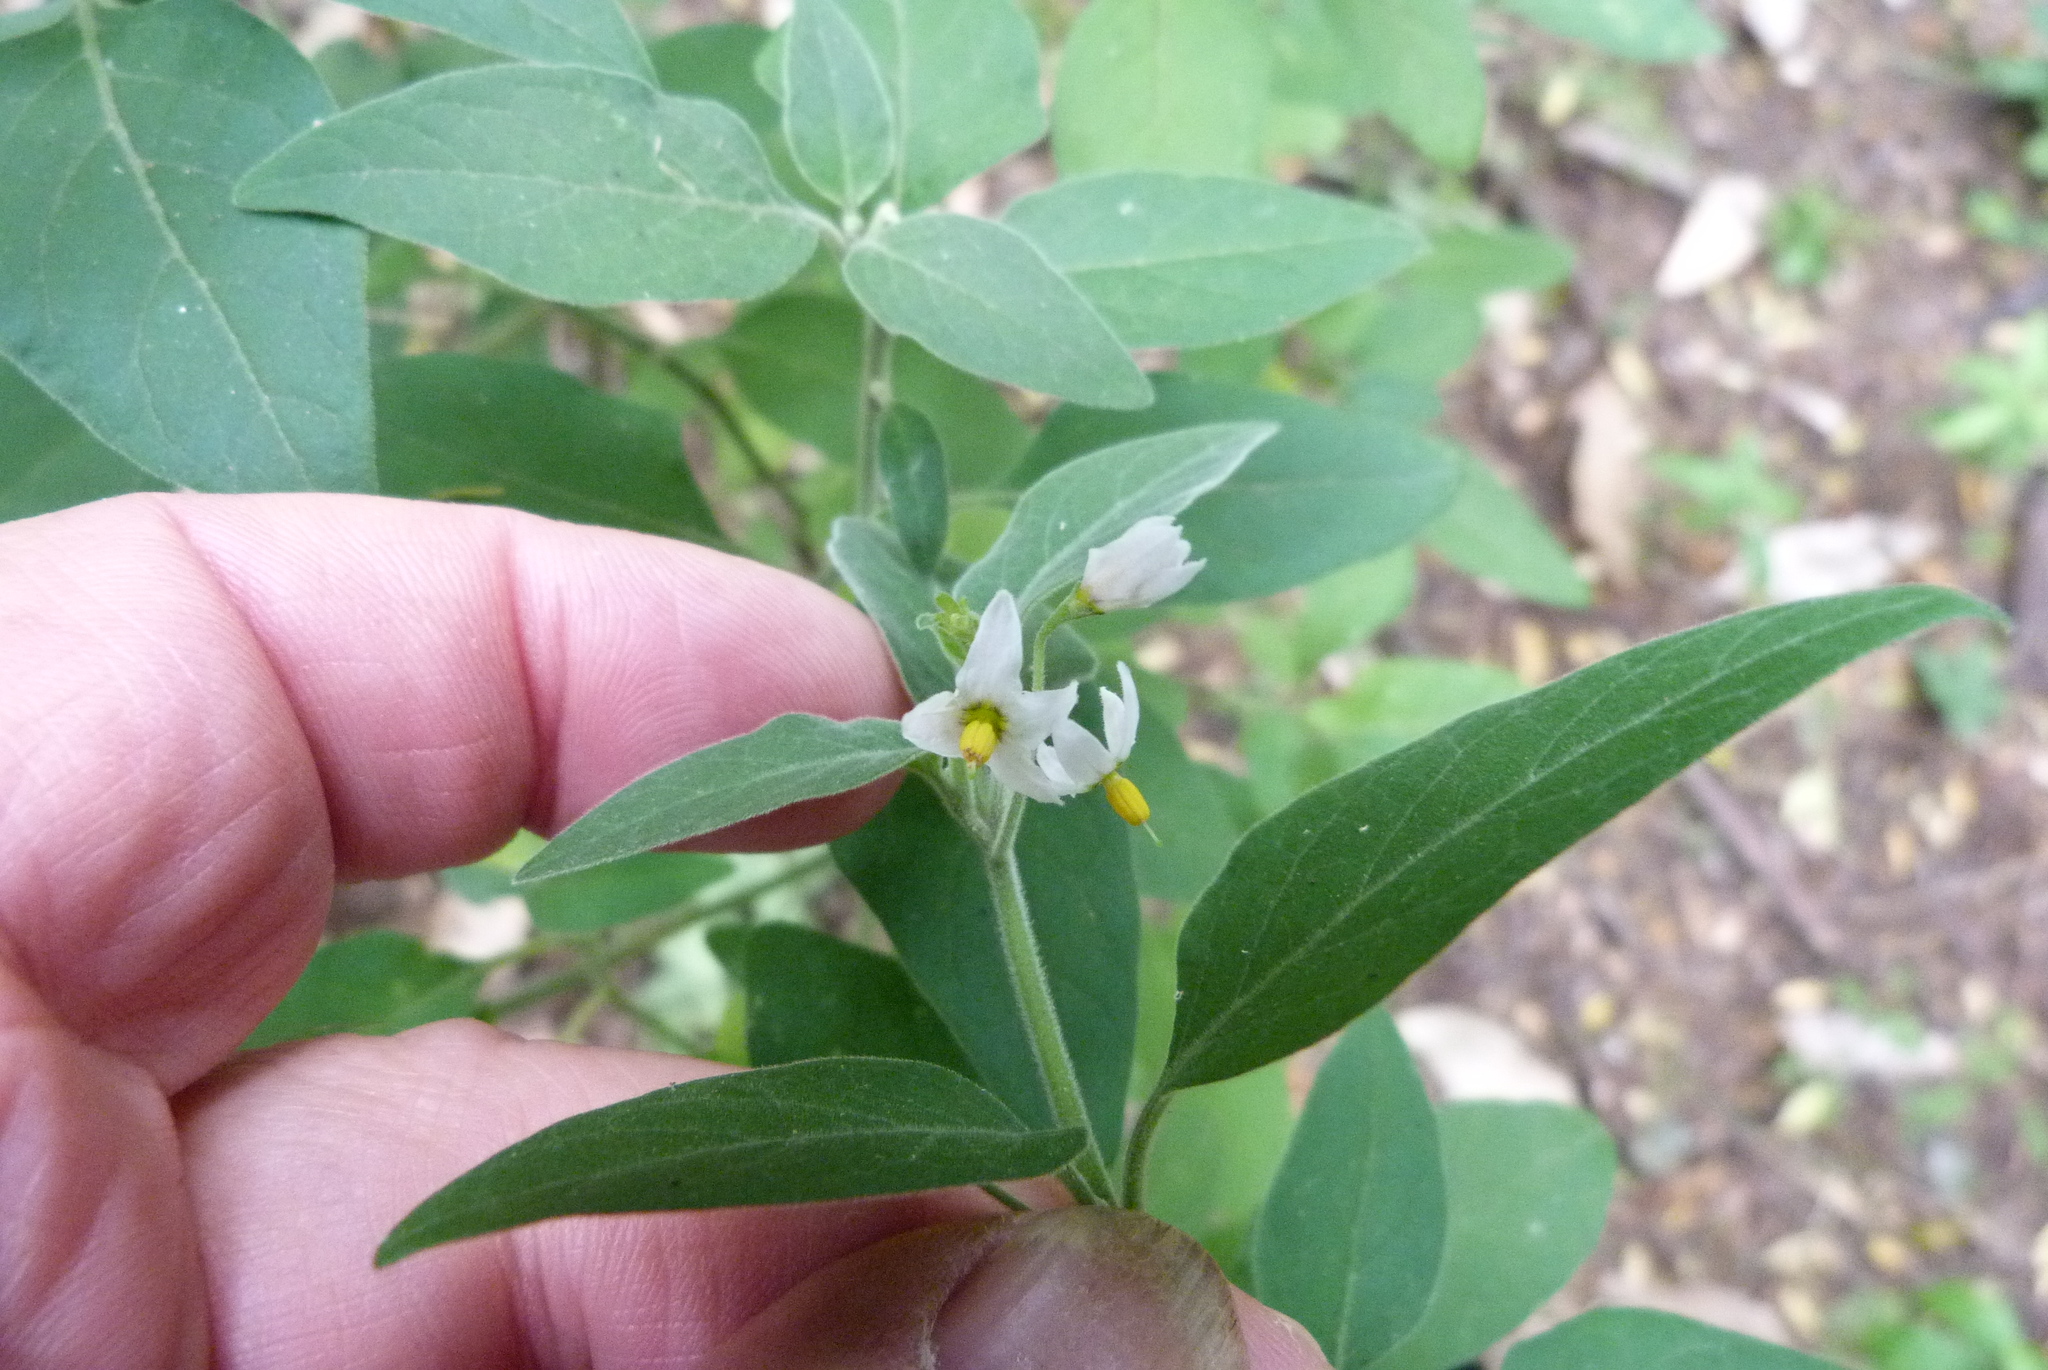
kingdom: Plantae
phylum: Tracheophyta
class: Magnoliopsida
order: Solanales
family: Solanaceae
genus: Solanum
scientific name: Solanum chenopodioides
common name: Tall nightshade
